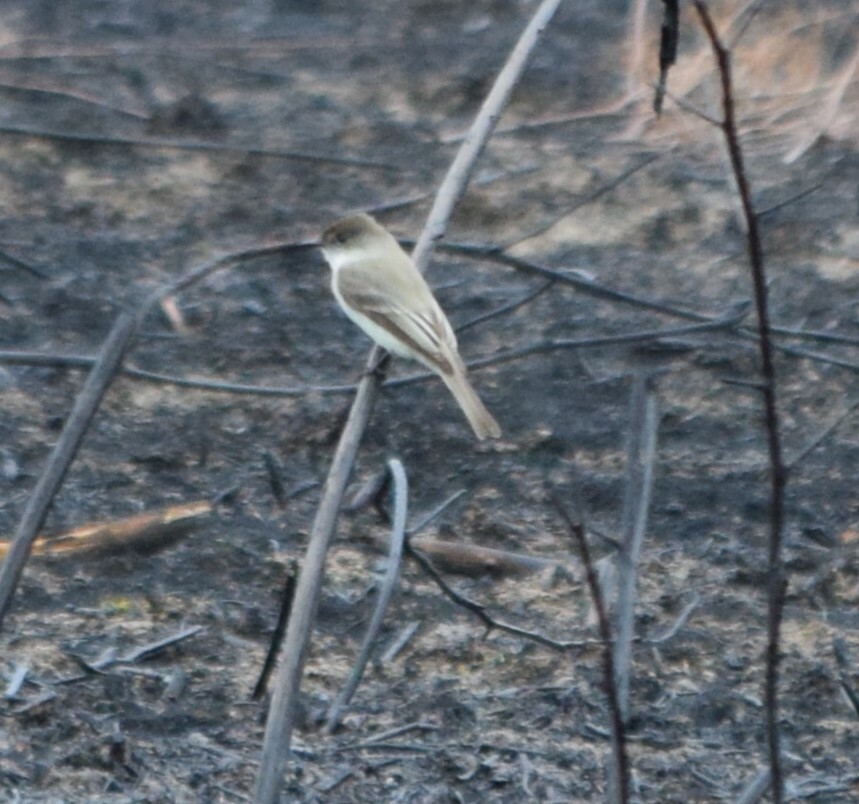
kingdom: Animalia
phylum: Chordata
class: Aves
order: Passeriformes
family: Tyrannidae
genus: Sayornis
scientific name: Sayornis phoebe
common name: Eastern phoebe
